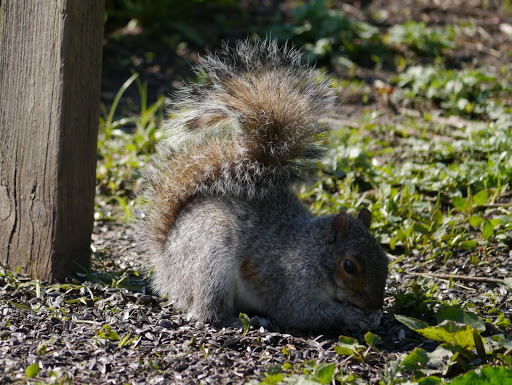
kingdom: Animalia
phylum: Chordata
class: Mammalia
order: Rodentia
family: Sciuridae
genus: Sciurus
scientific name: Sciurus carolinensis
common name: Eastern gray squirrel
